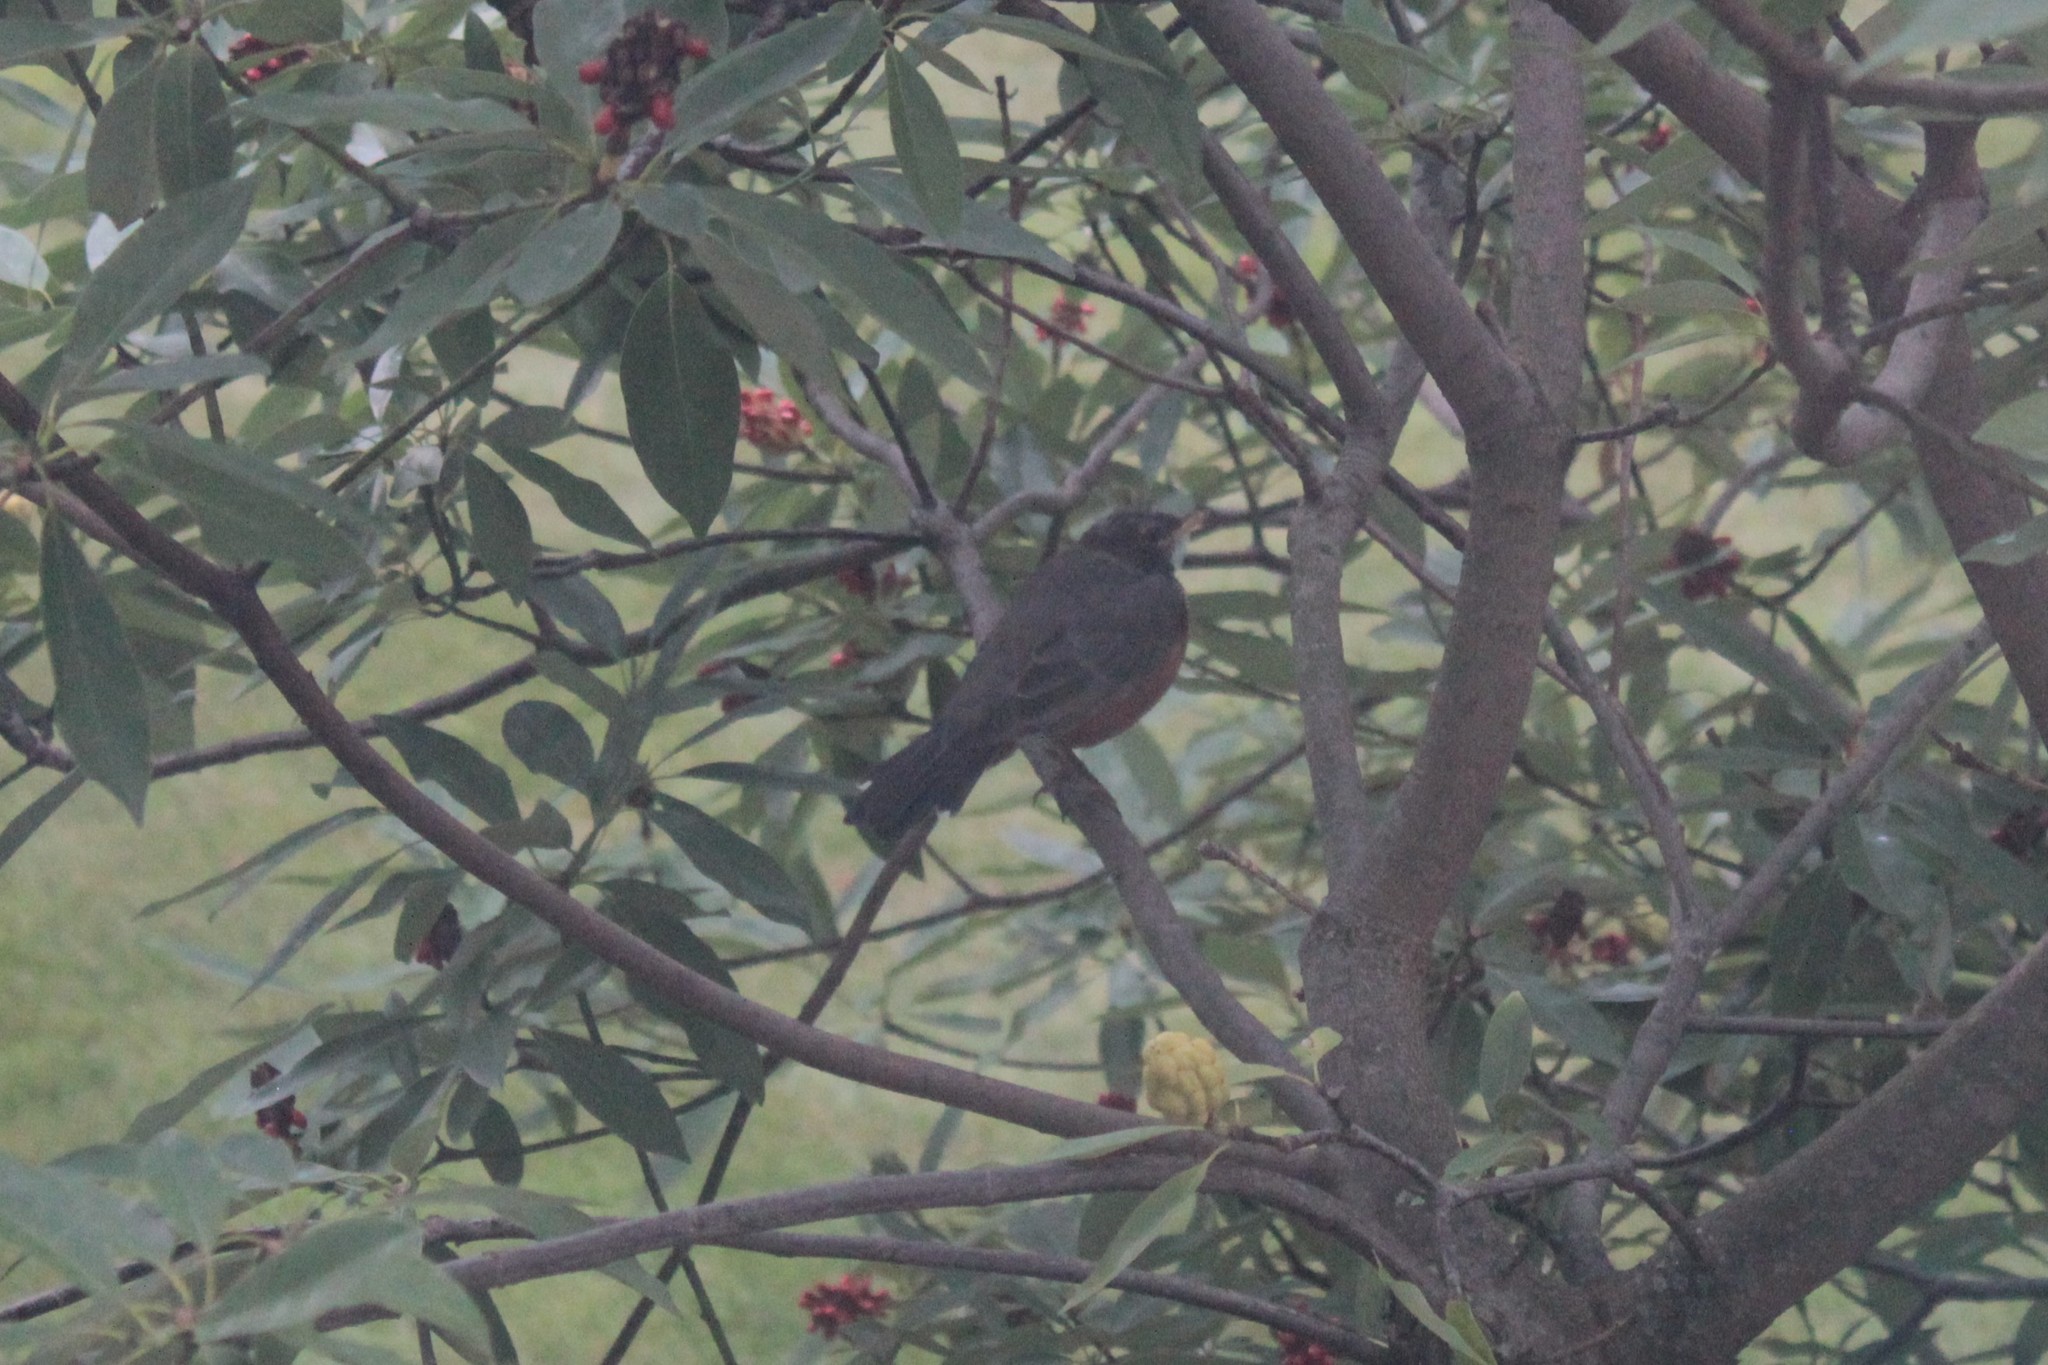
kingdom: Animalia
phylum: Chordata
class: Aves
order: Passeriformes
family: Turdidae
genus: Turdus
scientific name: Turdus migratorius
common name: American robin
